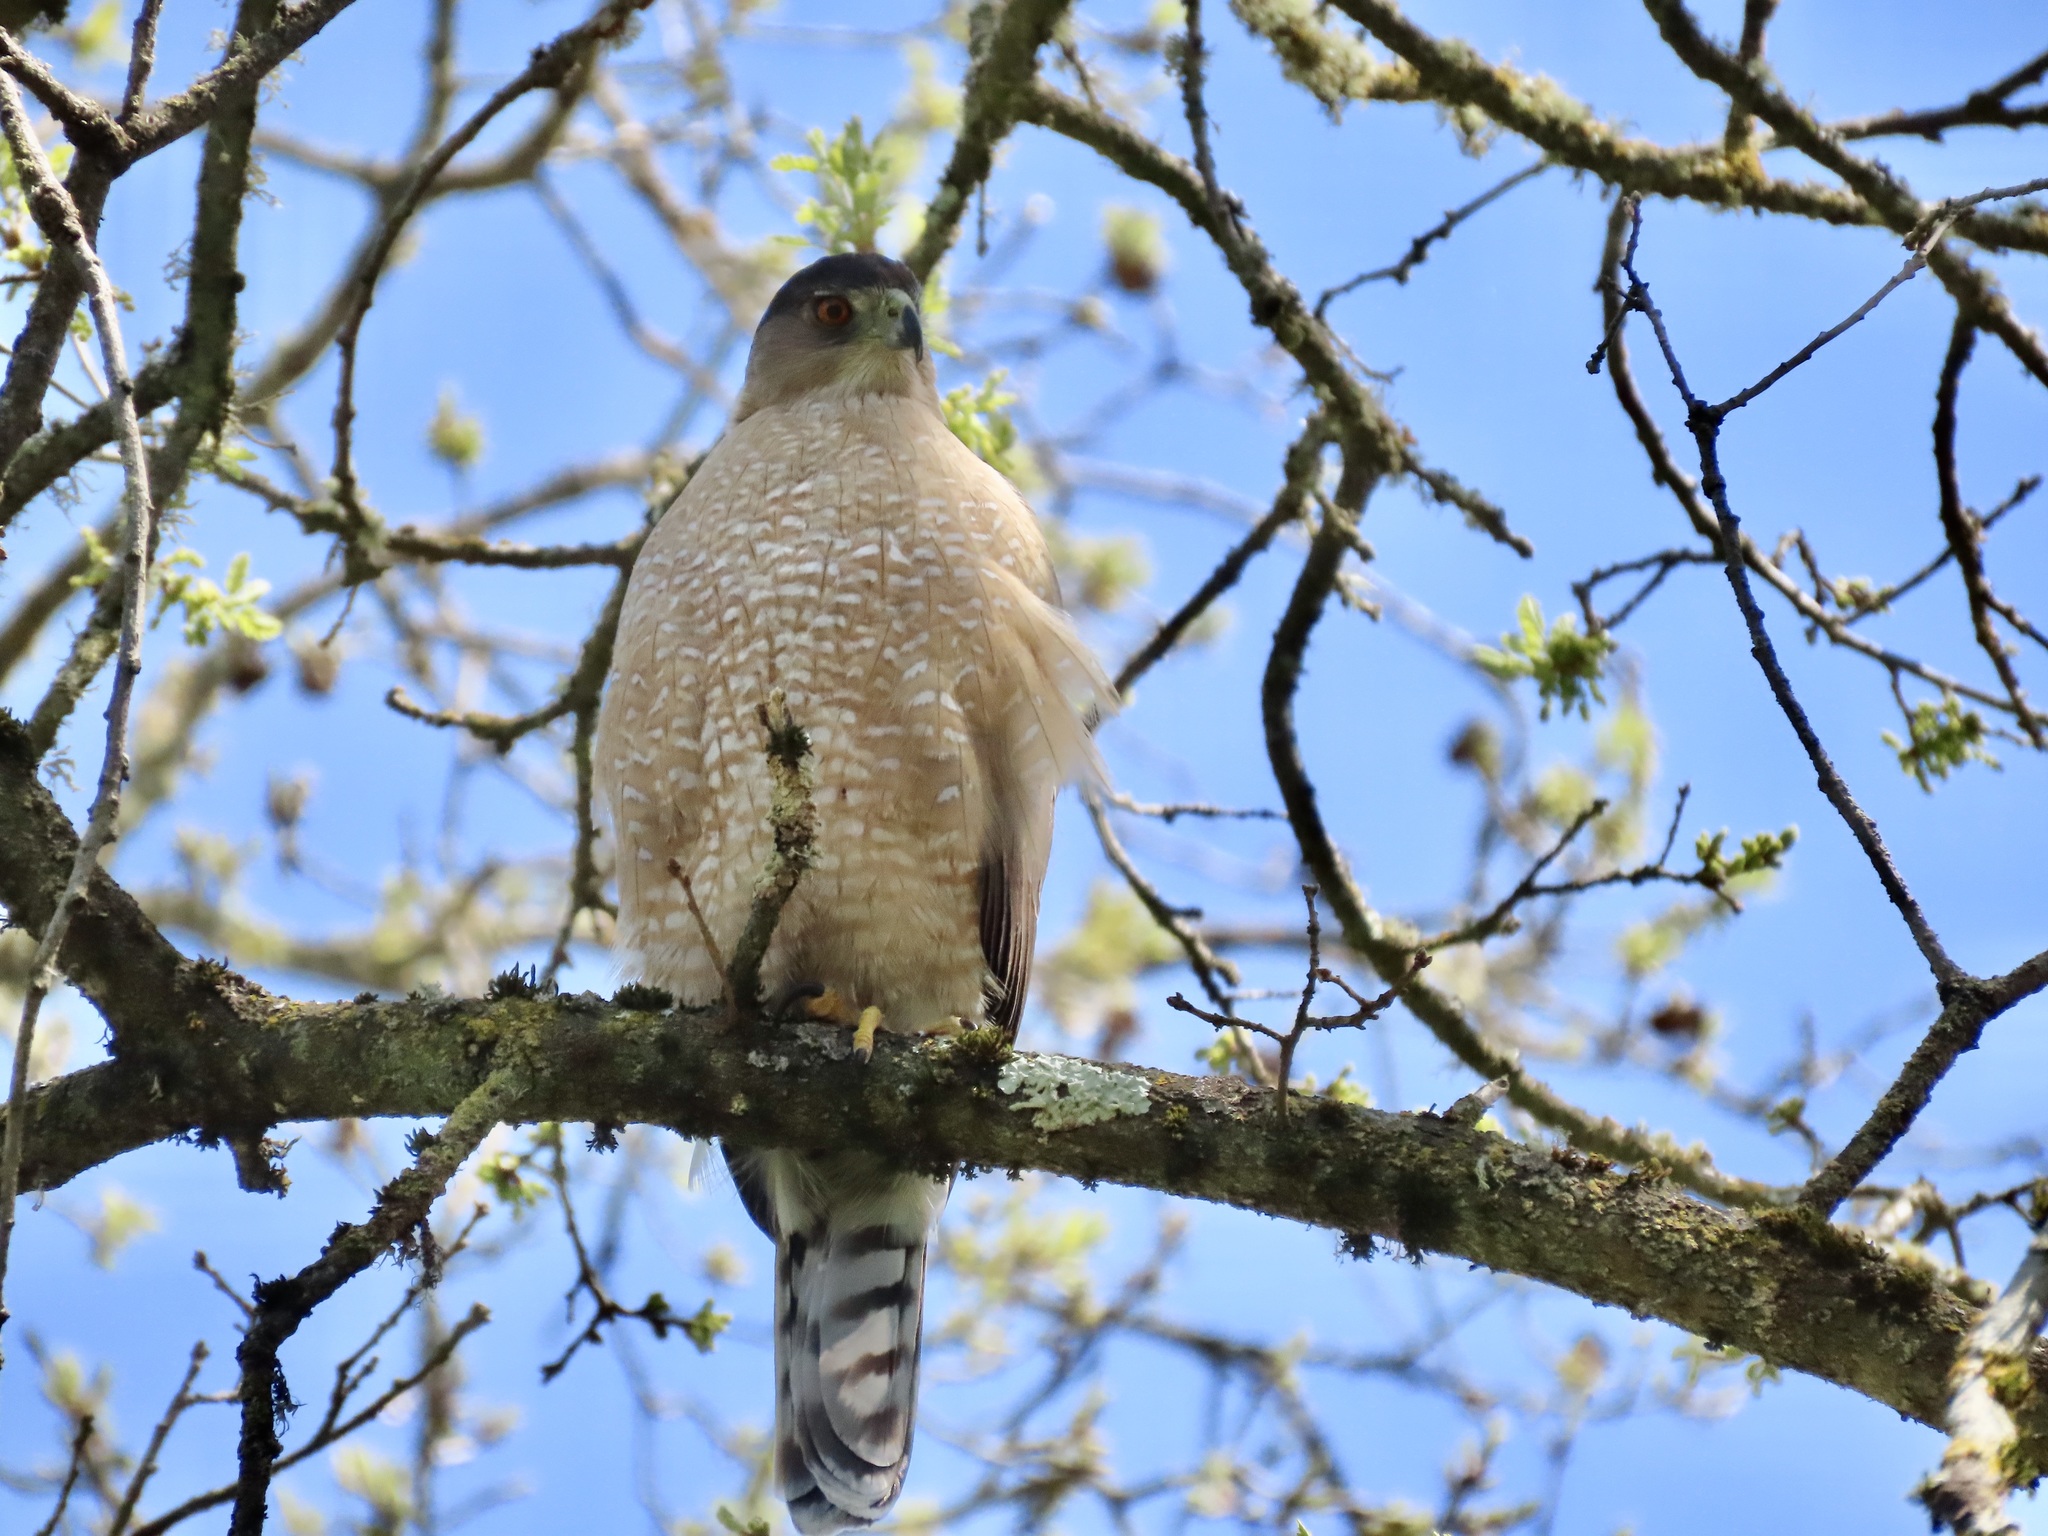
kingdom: Animalia
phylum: Chordata
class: Aves
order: Accipitriformes
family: Accipitridae
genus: Accipiter
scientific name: Accipiter cooperii
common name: Cooper's hawk
